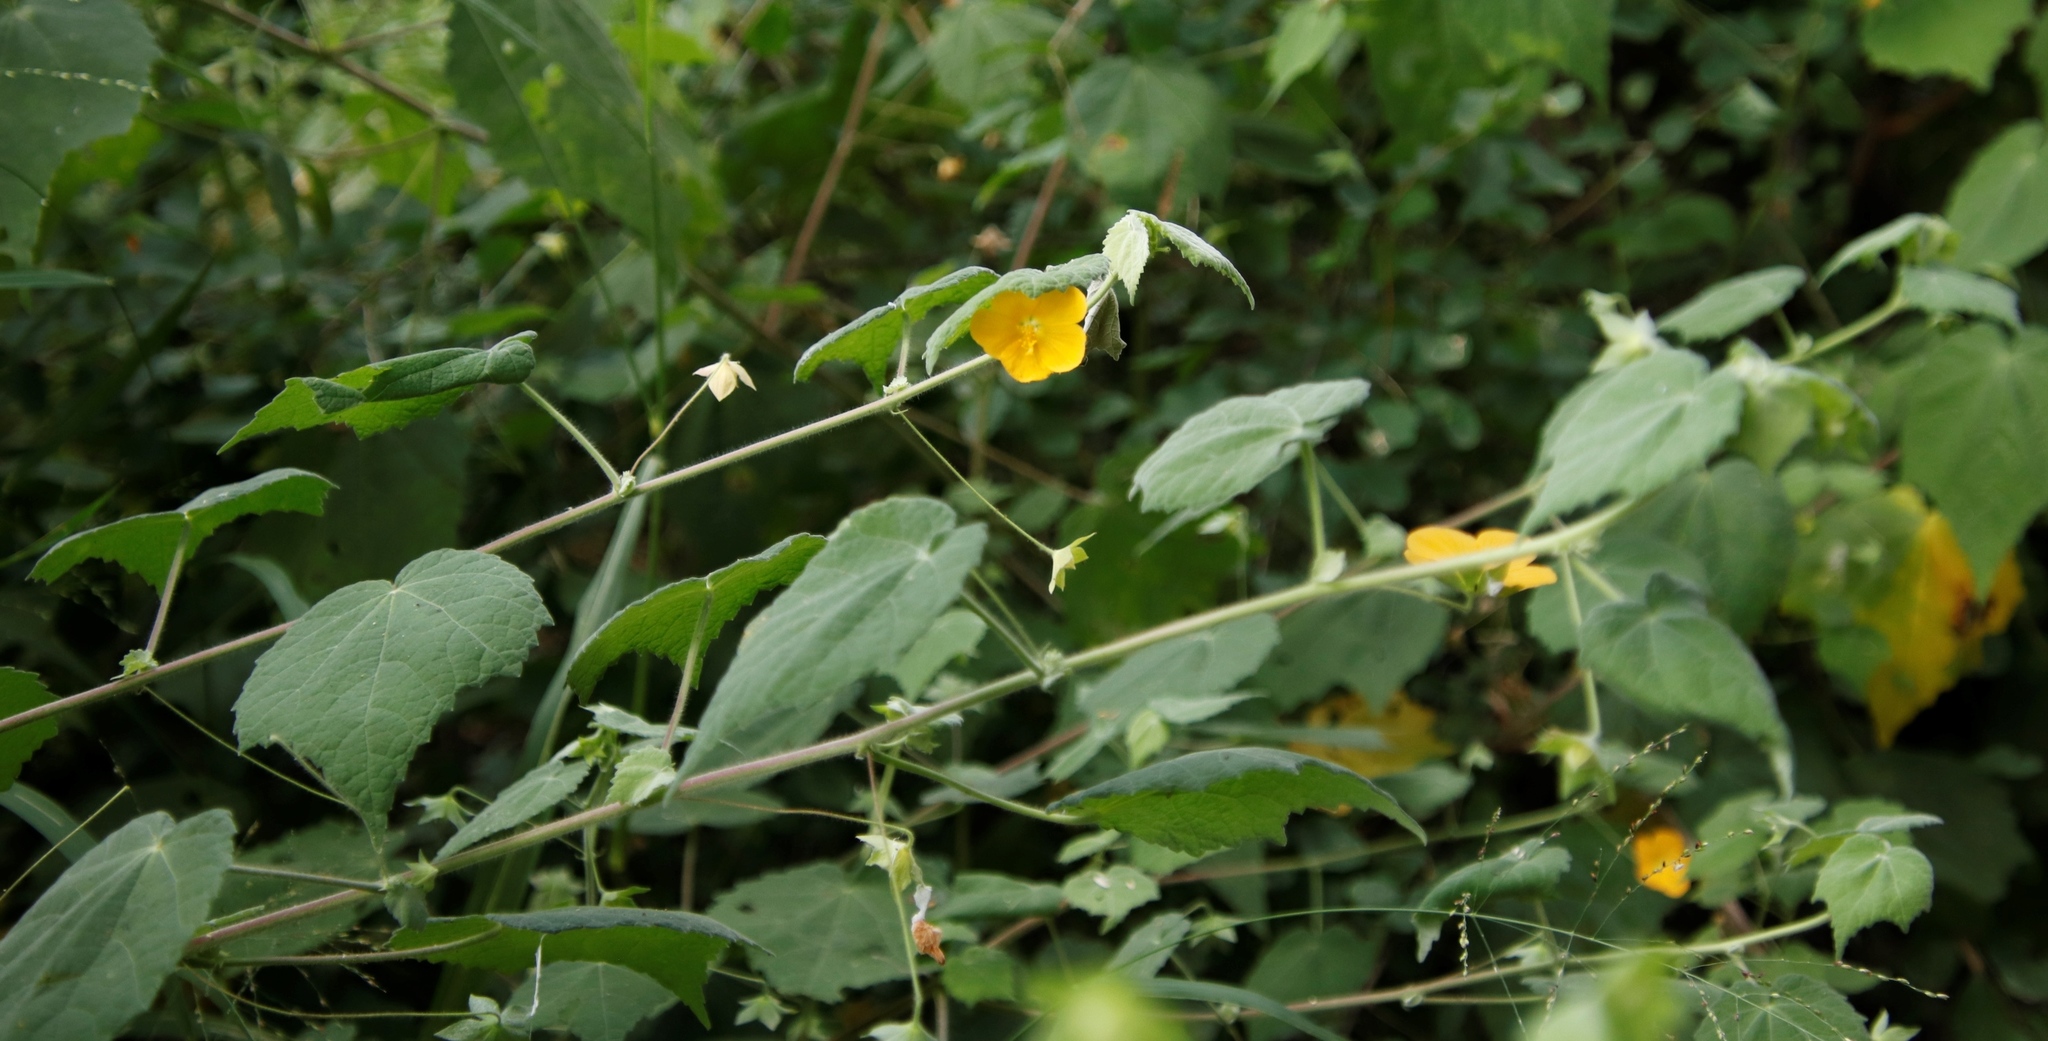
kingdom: Plantae
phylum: Tracheophyta
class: Magnoliopsida
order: Malvales
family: Malvaceae
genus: Pavonia
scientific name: Pavonia burchellii
